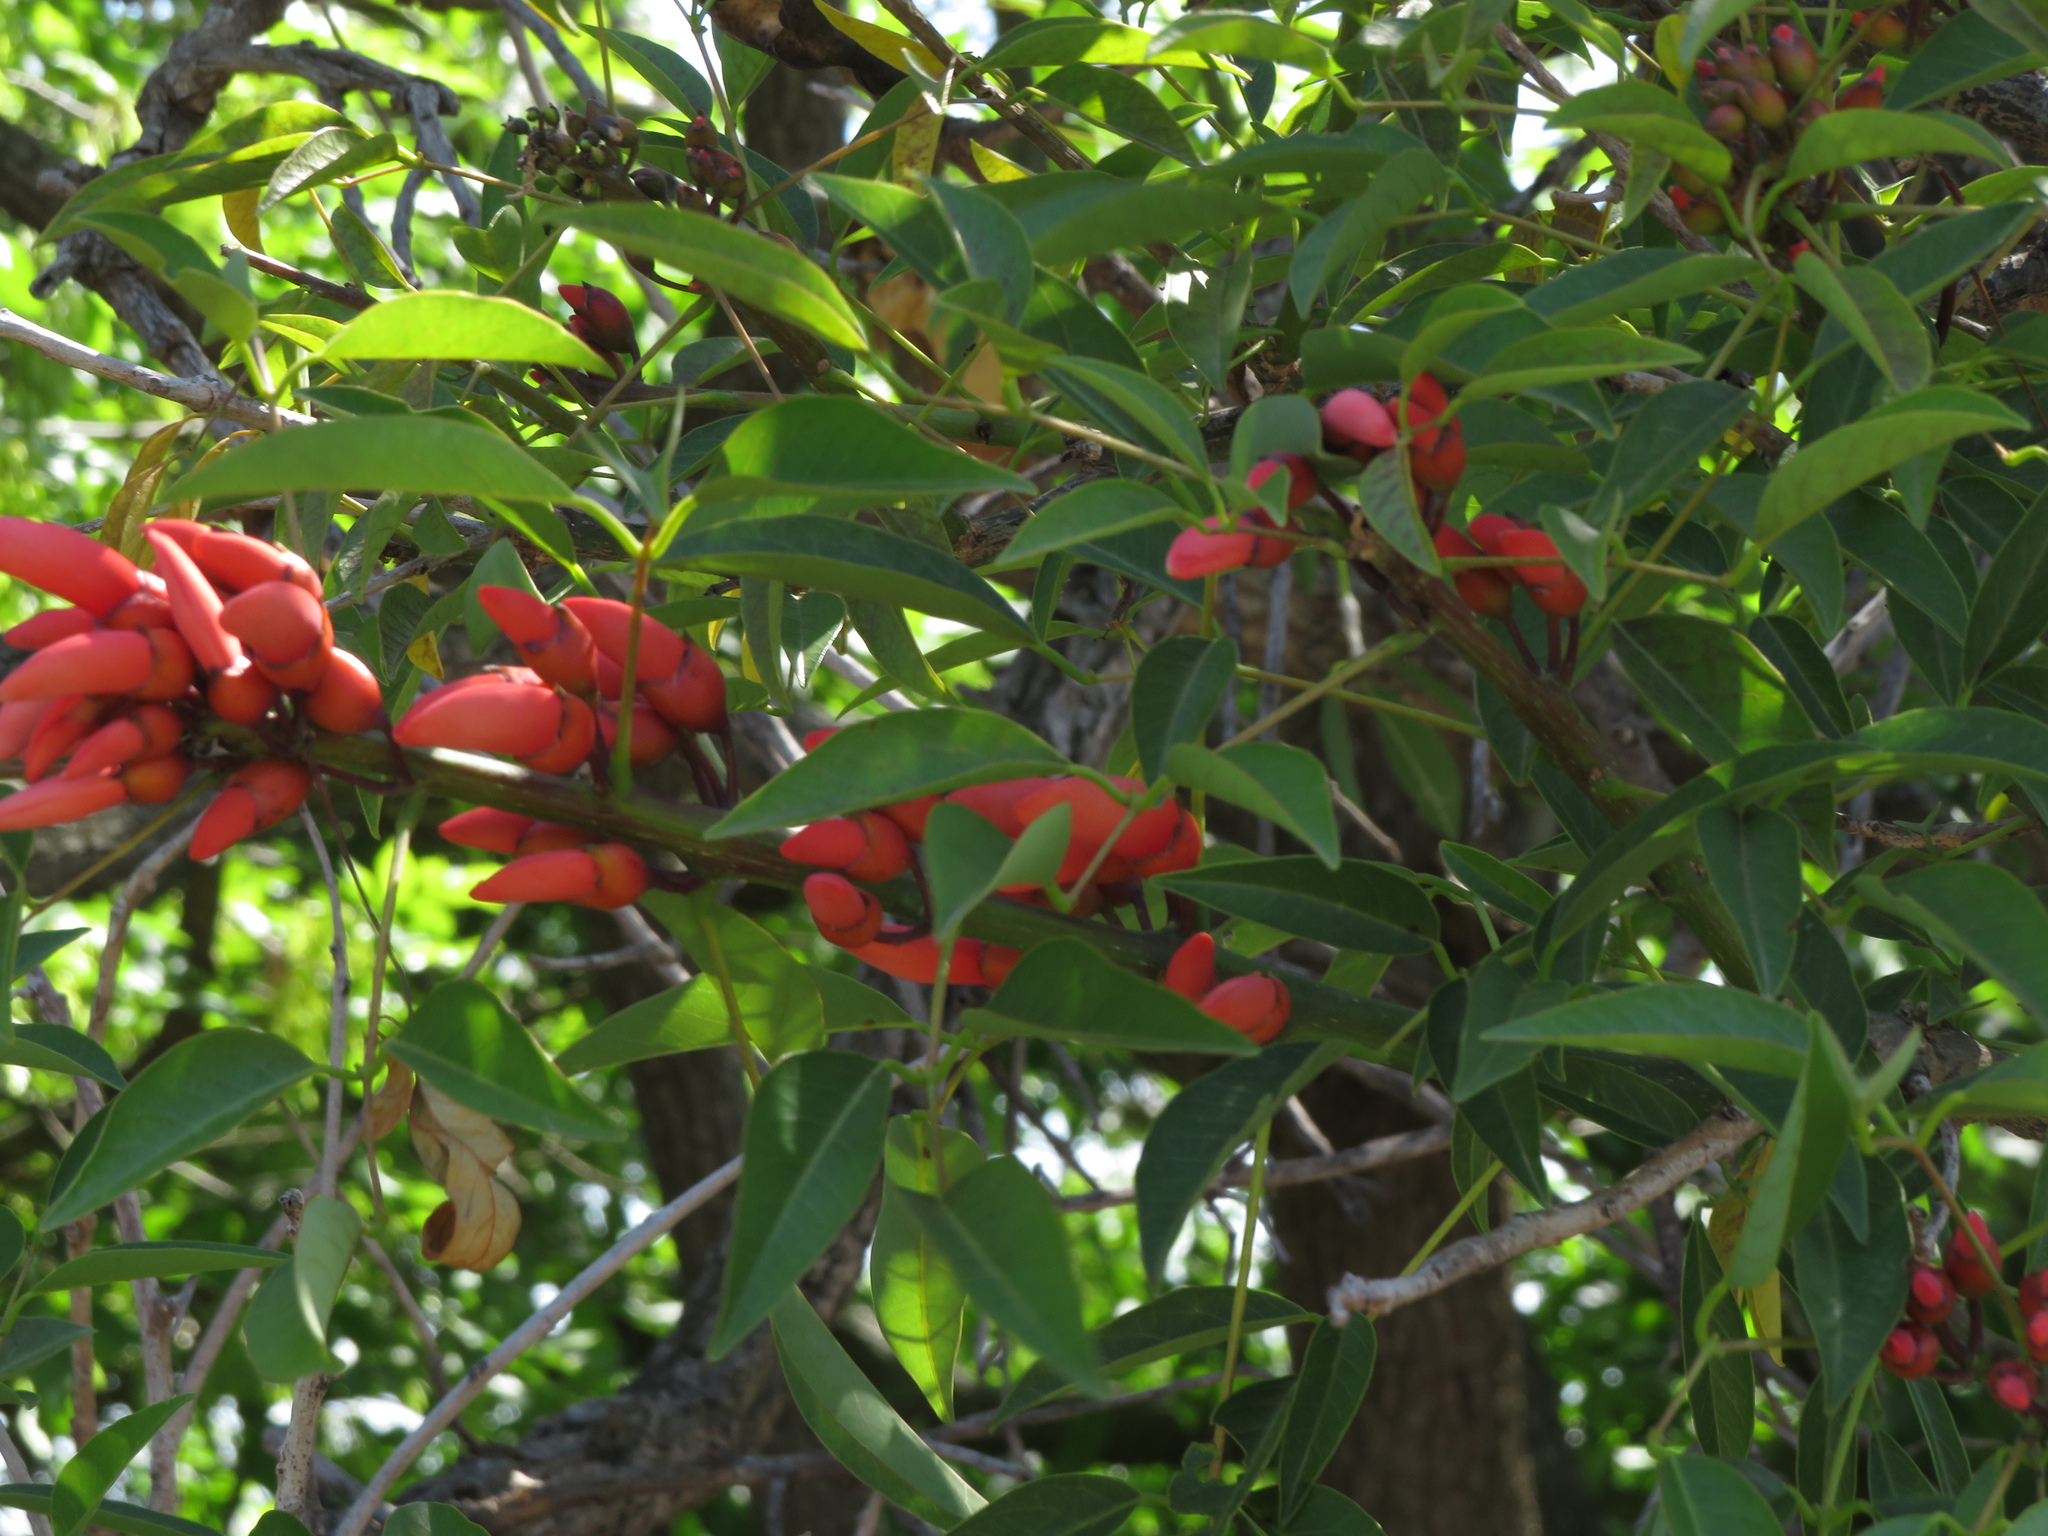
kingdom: Plantae
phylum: Tracheophyta
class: Magnoliopsida
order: Fabales
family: Fabaceae
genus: Erythrina
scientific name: Erythrina crista-galli
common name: Cockspur coral tree
